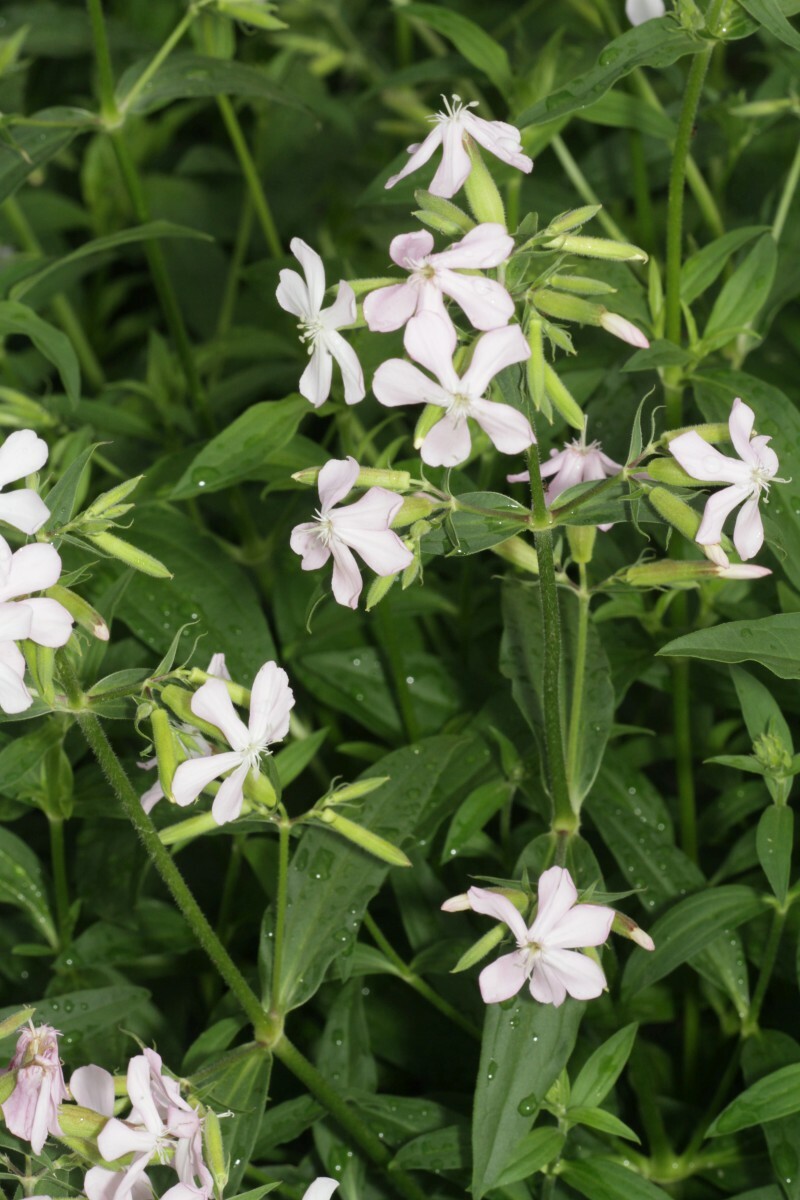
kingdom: Plantae
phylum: Tracheophyta
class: Magnoliopsida
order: Caryophyllales
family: Caryophyllaceae
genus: Saponaria
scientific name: Saponaria officinalis
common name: Soapwort
